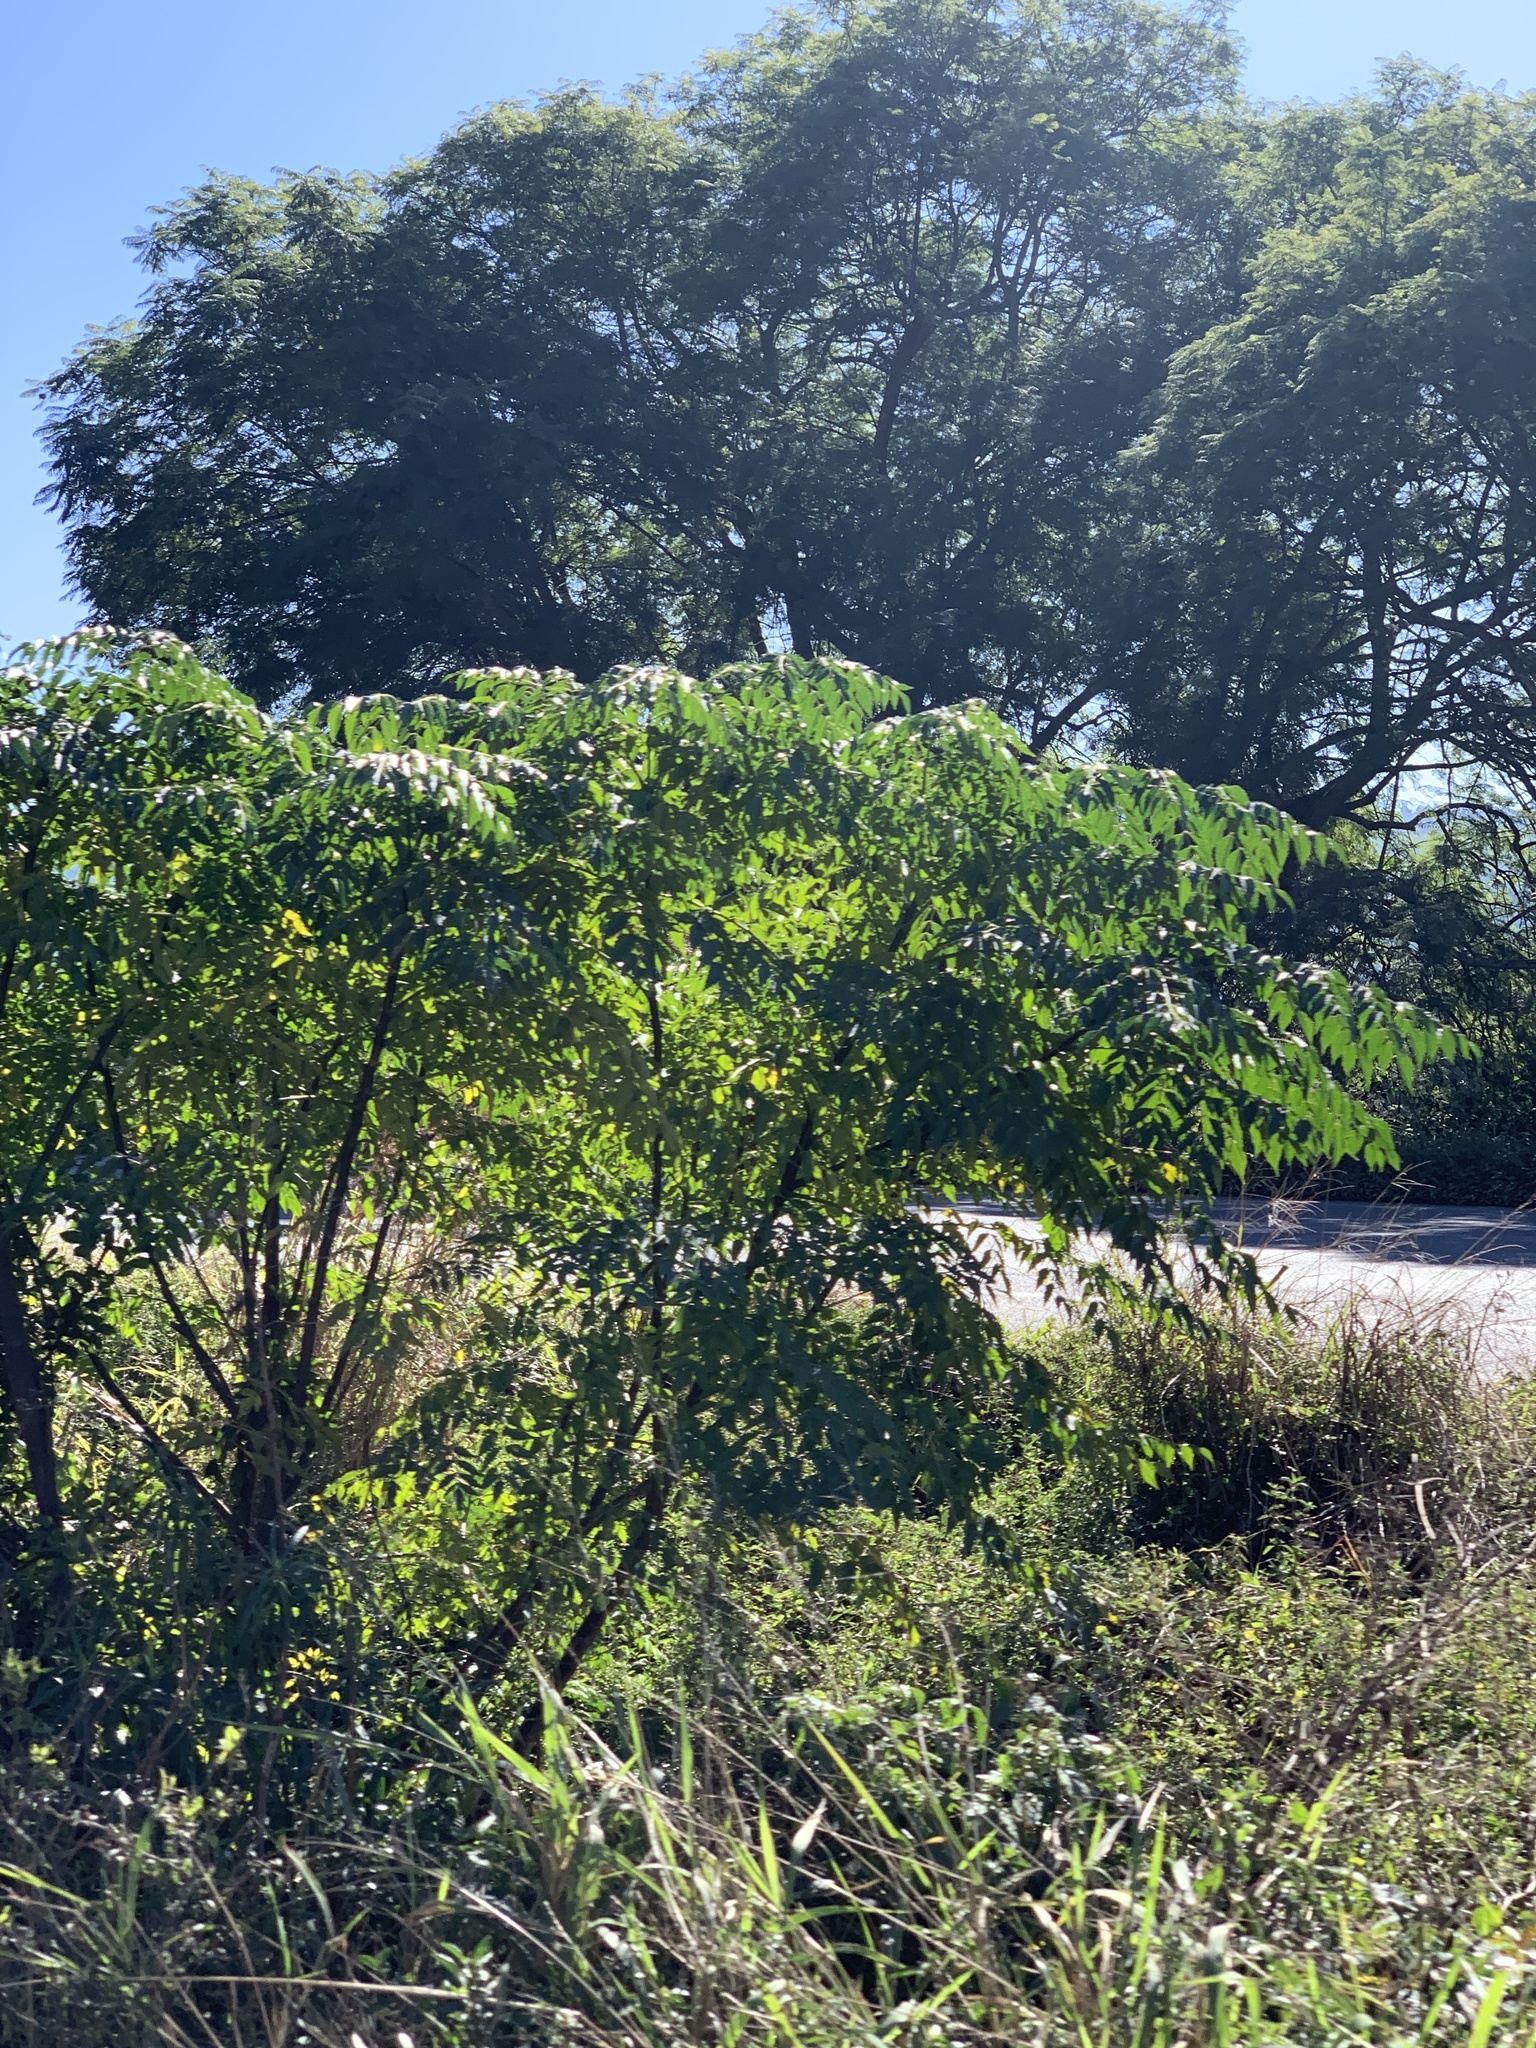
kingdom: Plantae
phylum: Tracheophyta
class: Magnoliopsida
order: Sapindales
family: Meliaceae
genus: Melia
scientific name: Melia azedarach
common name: Chinaberrytree
